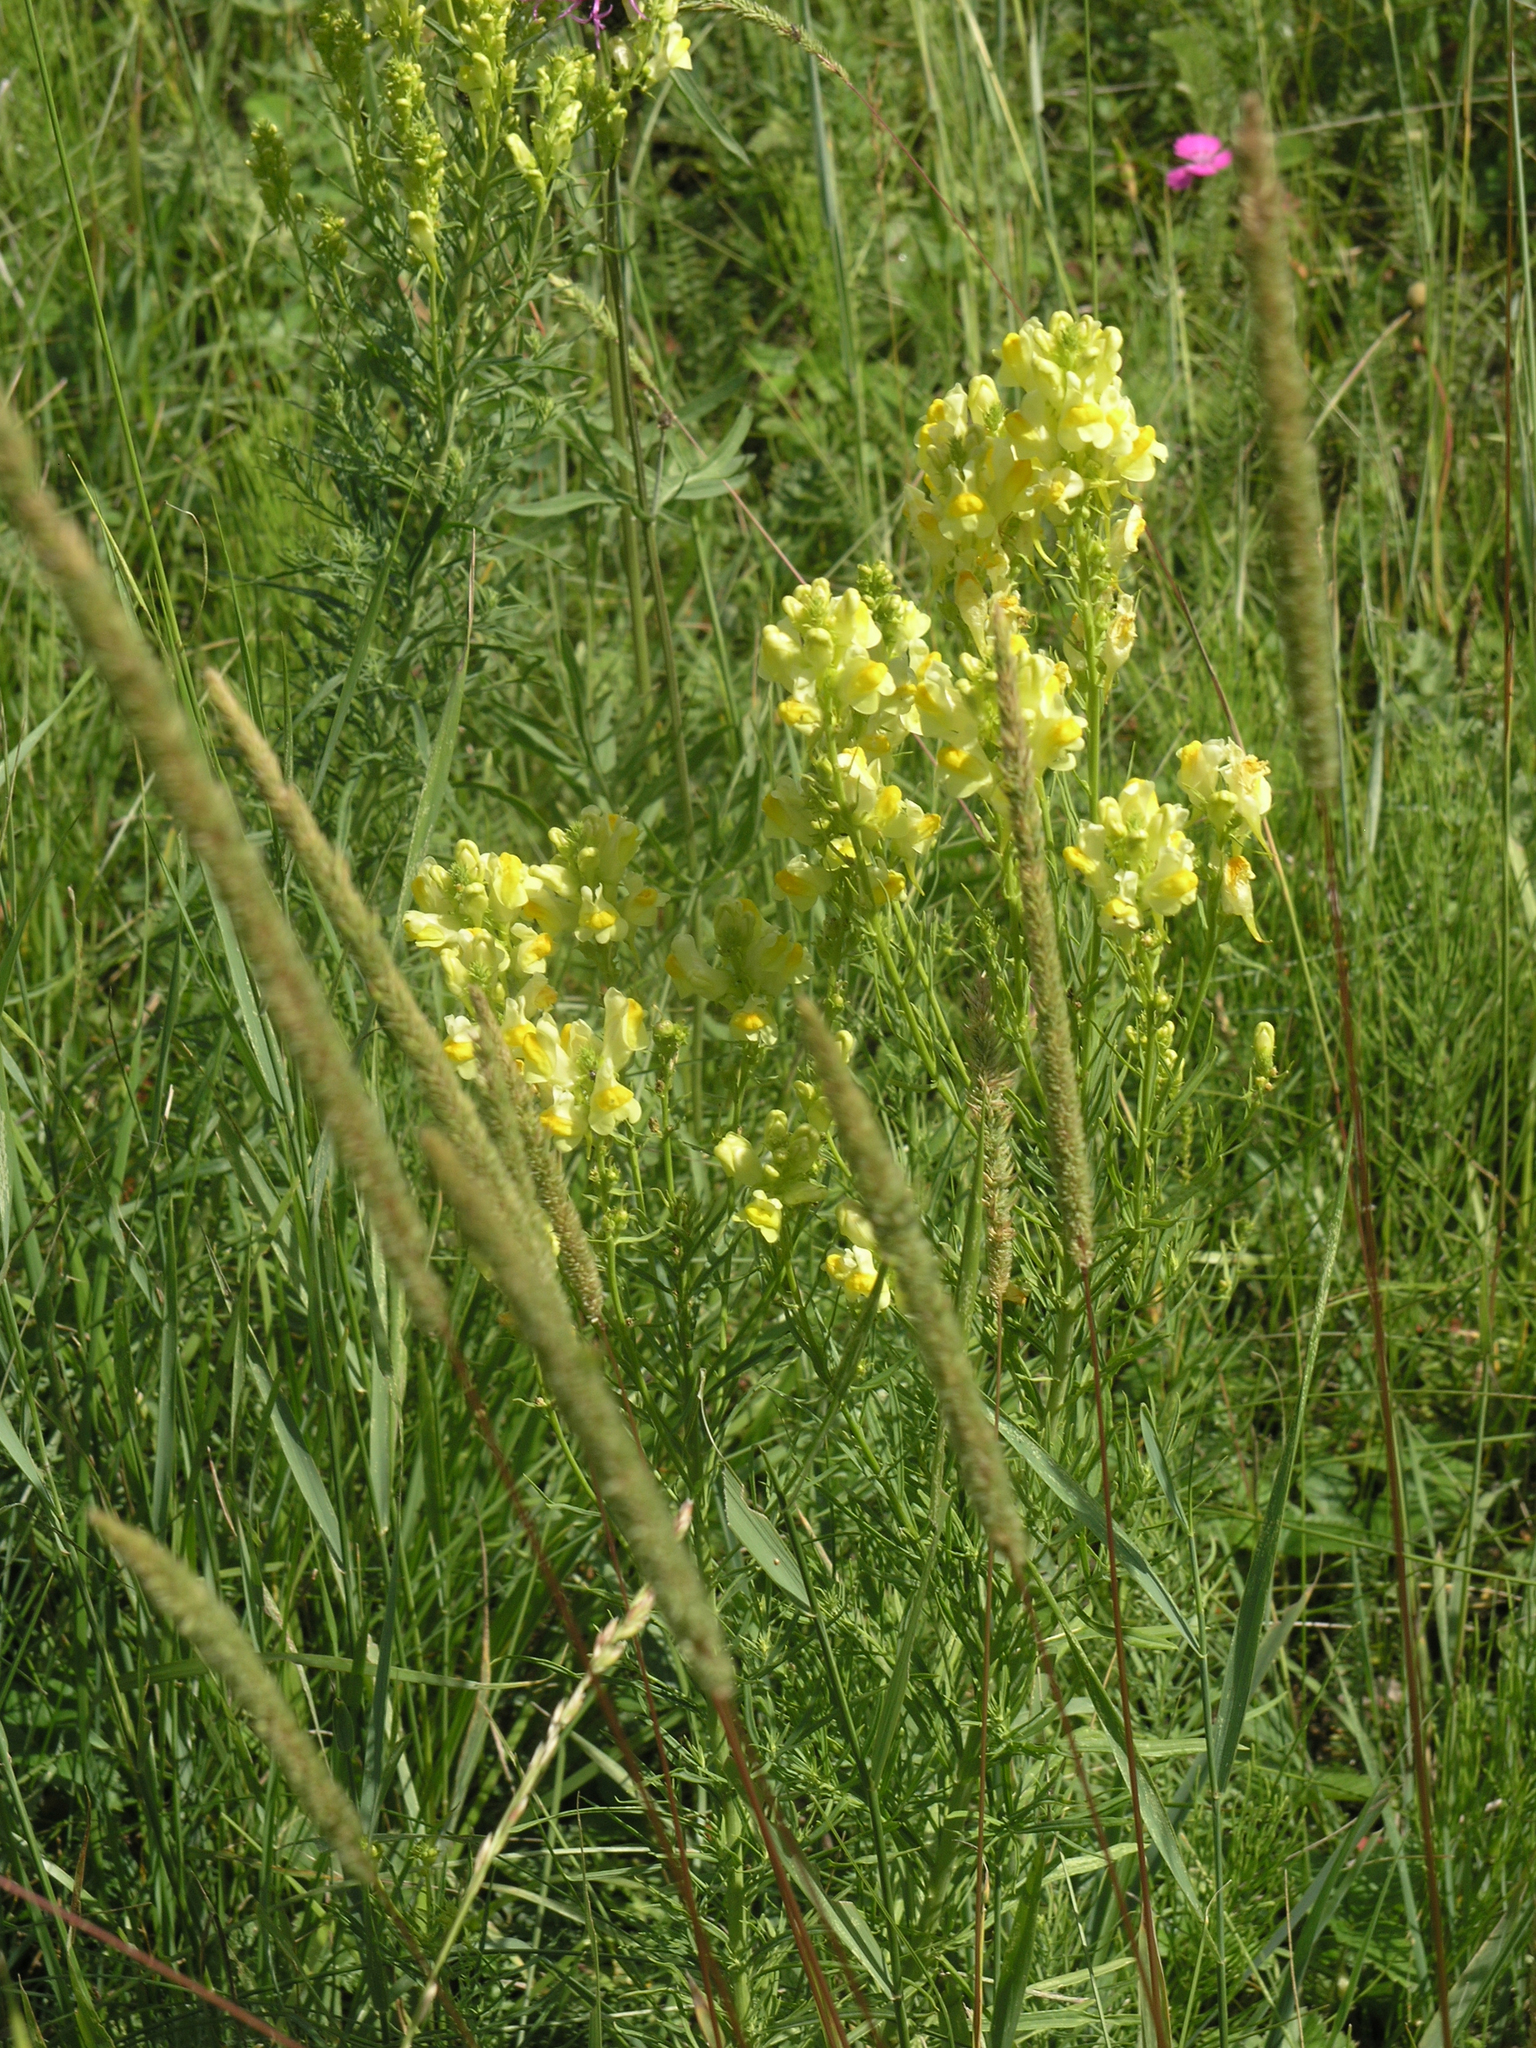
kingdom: Plantae
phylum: Tracheophyta
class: Magnoliopsida
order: Lamiales
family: Plantaginaceae
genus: Linaria
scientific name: Linaria vulgaris
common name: Butter and eggs
